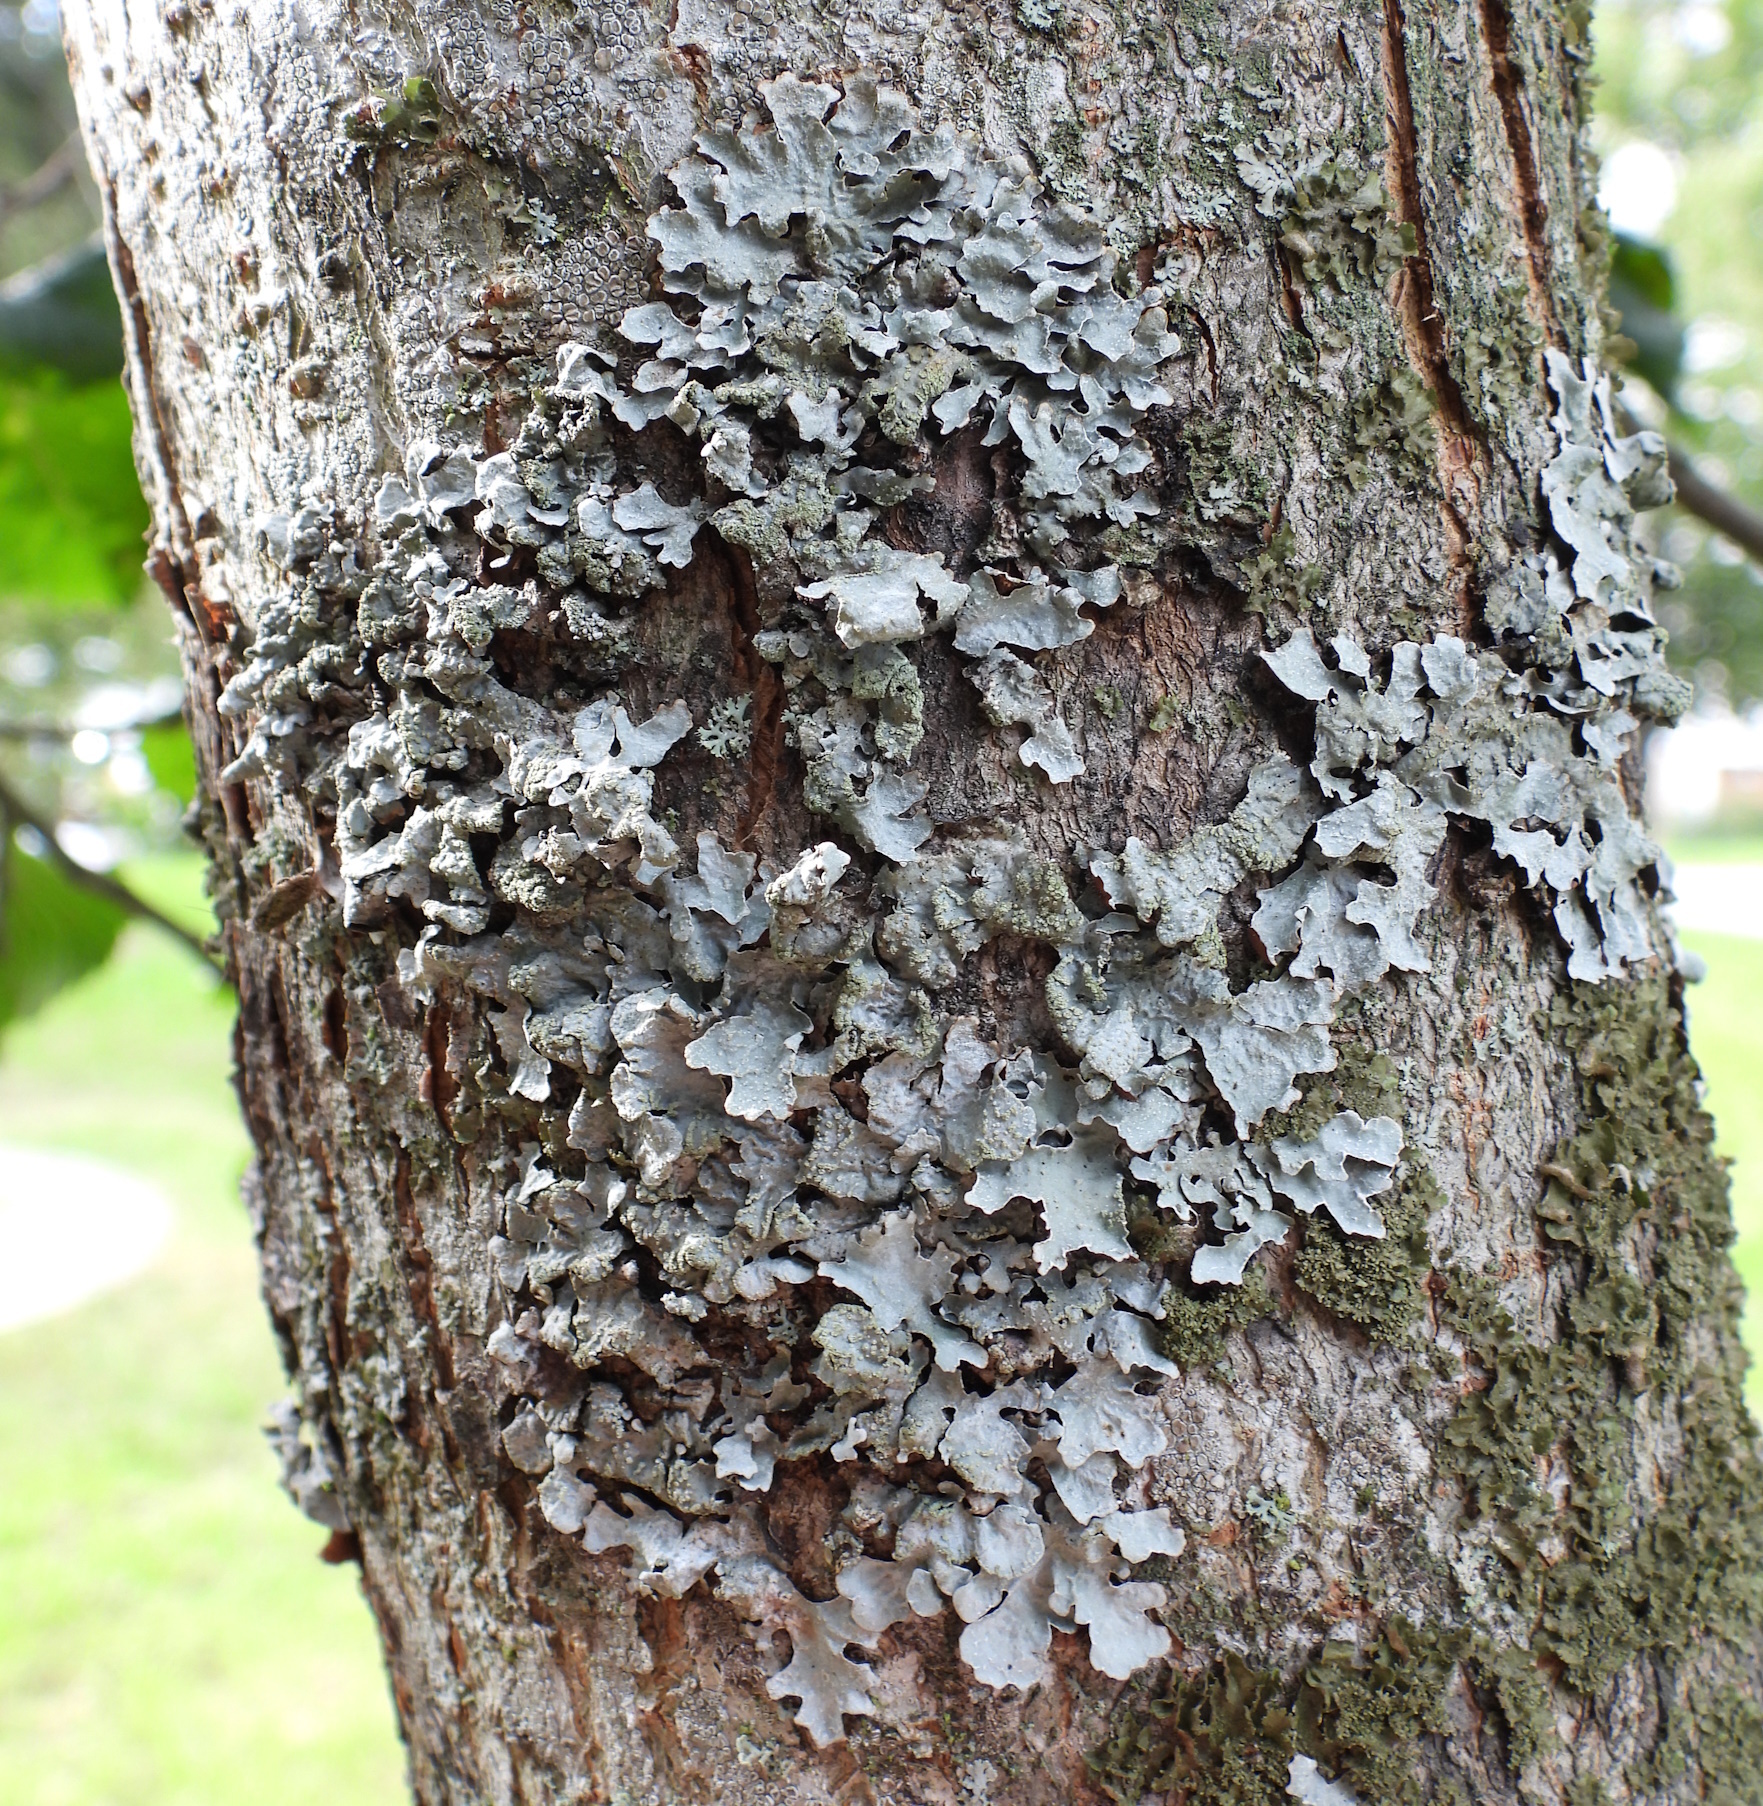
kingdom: Fungi
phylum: Ascomycota
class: Lecanoromycetes
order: Lecanorales
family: Parmeliaceae
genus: Parmelia
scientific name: Parmelia sulcata
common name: Netted shield lichen
